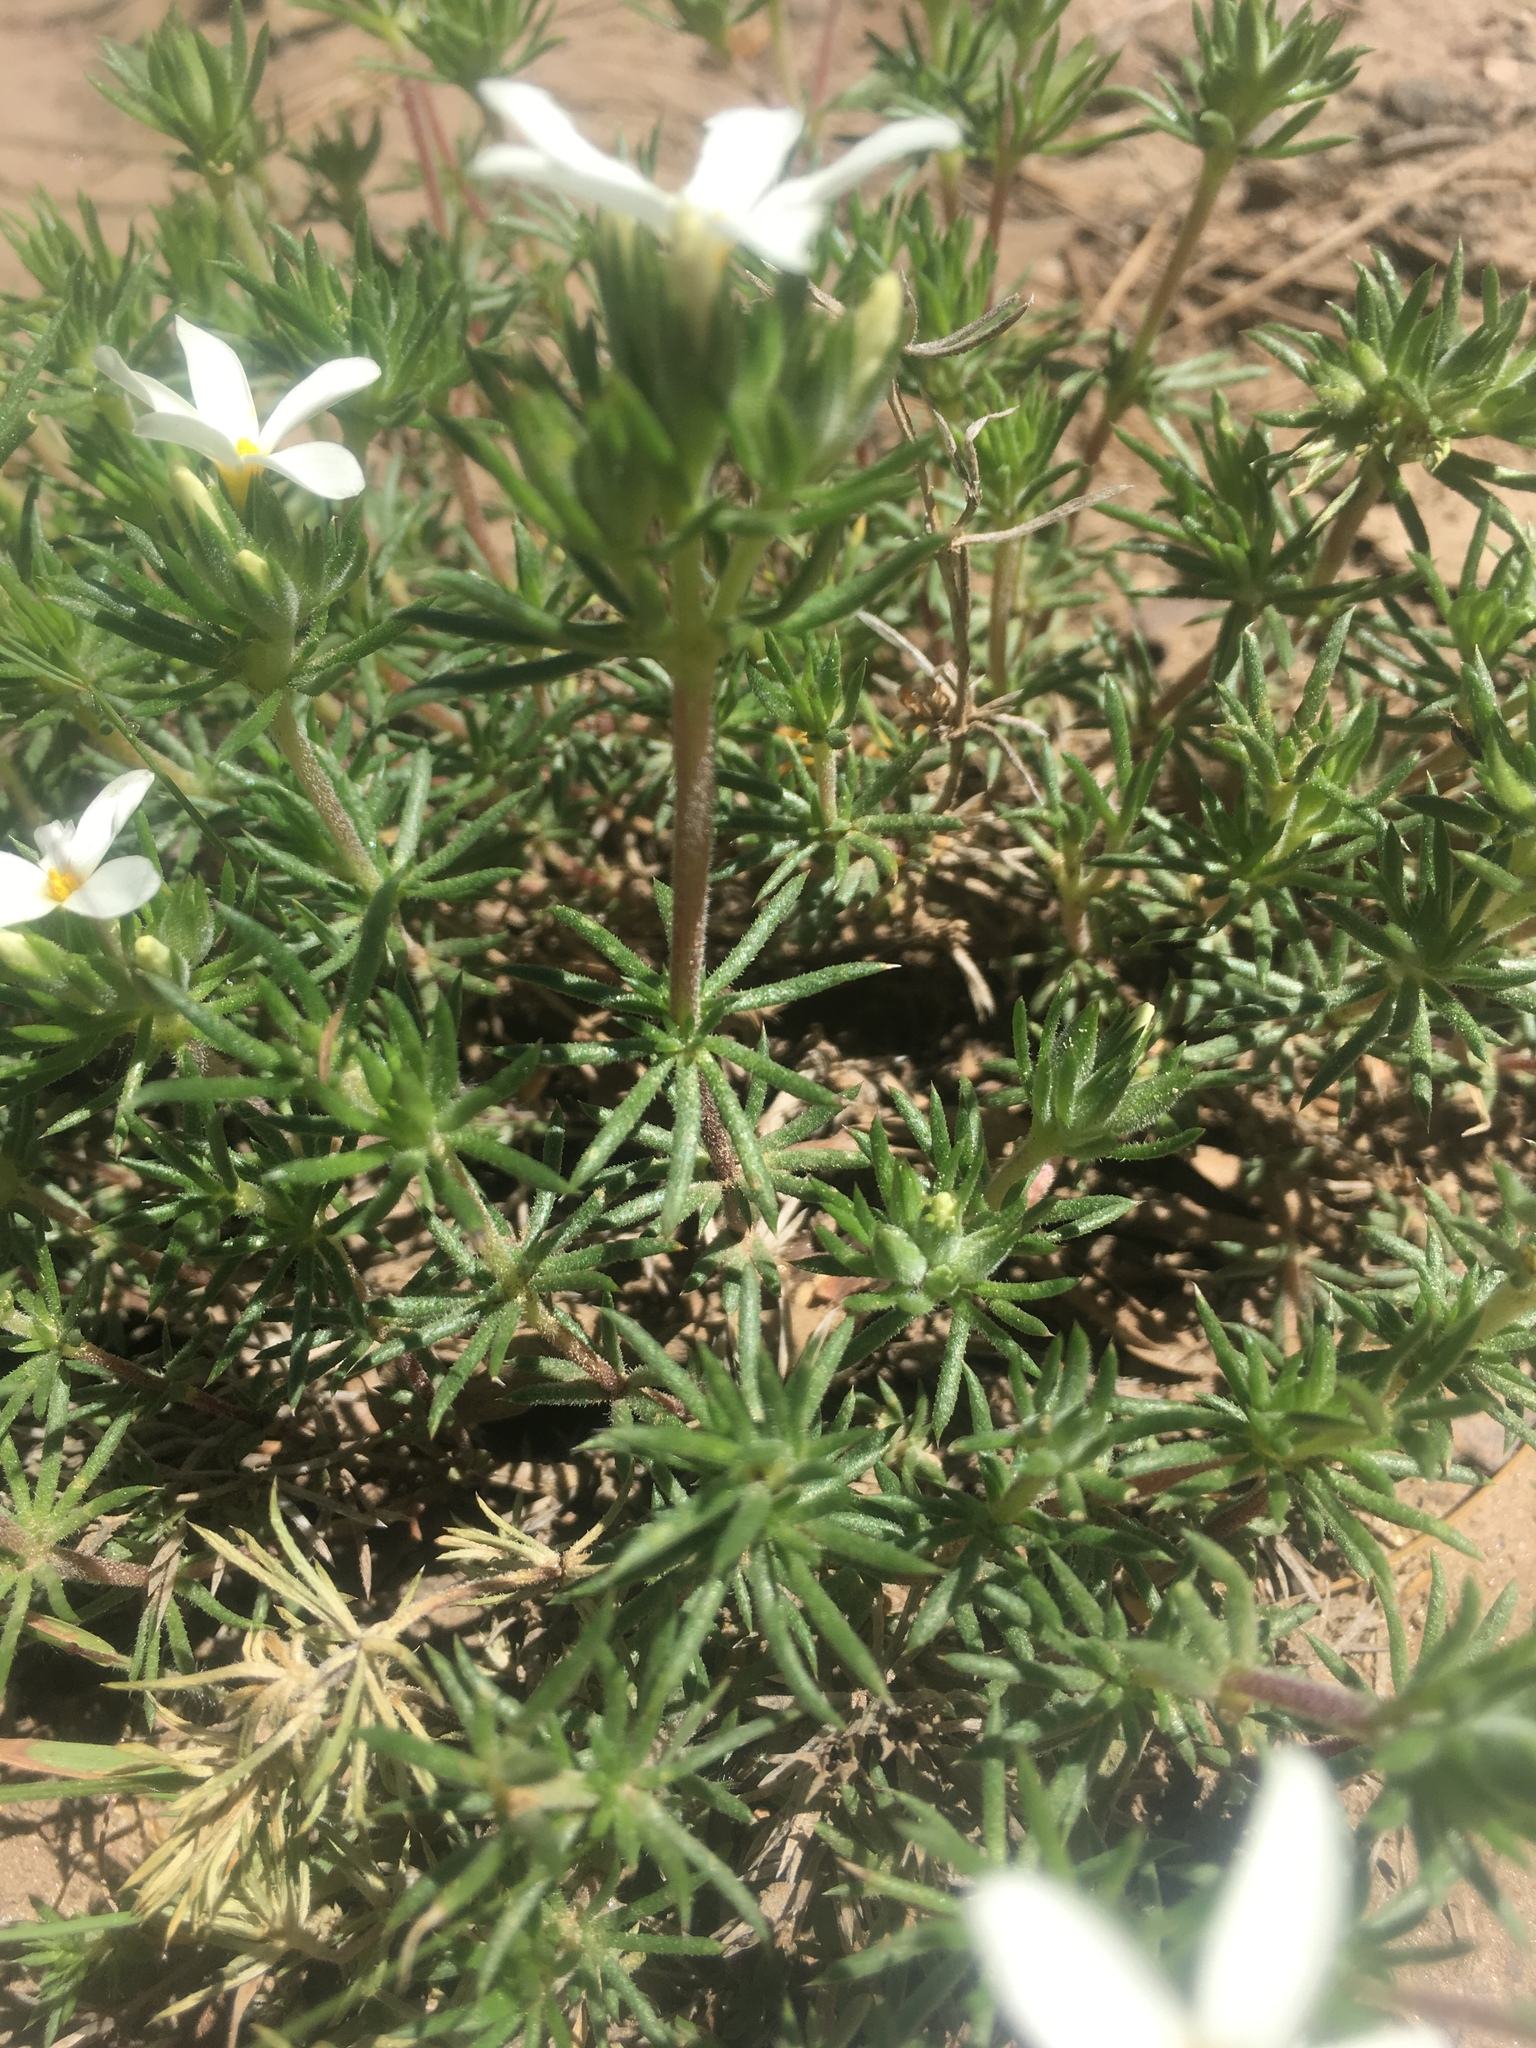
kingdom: Plantae
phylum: Tracheophyta
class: Magnoliopsida
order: Ericales
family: Polemoniaceae
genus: Leptosiphon
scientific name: Leptosiphon floribundum
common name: Many-flower linanthus
